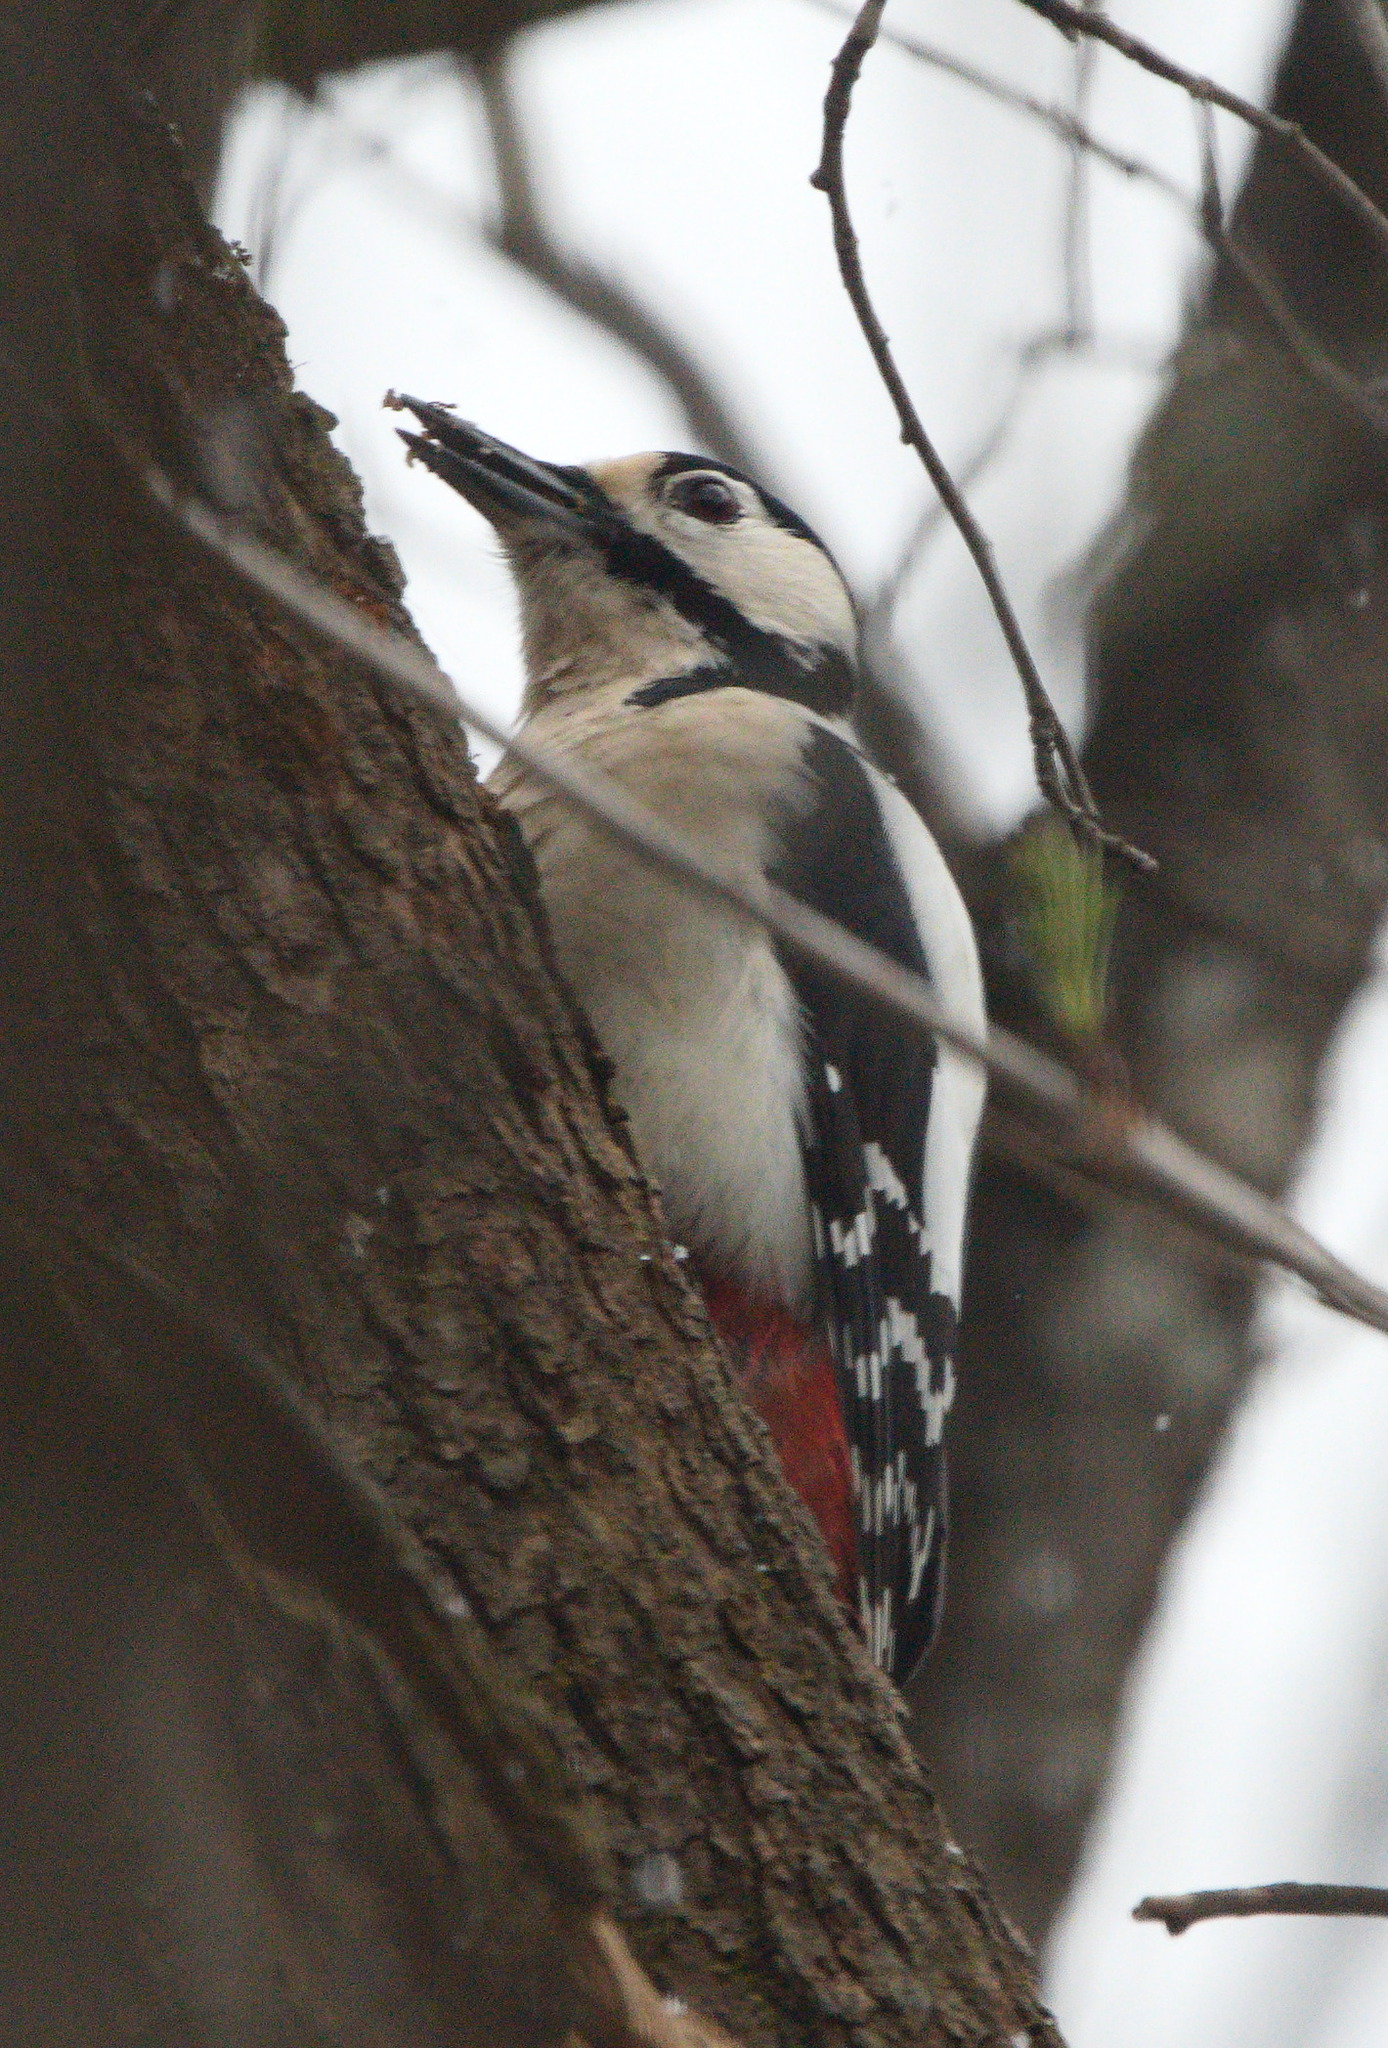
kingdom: Animalia
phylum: Chordata
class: Aves
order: Piciformes
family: Picidae
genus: Dendrocopos
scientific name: Dendrocopos major
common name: Great spotted woodpecker
